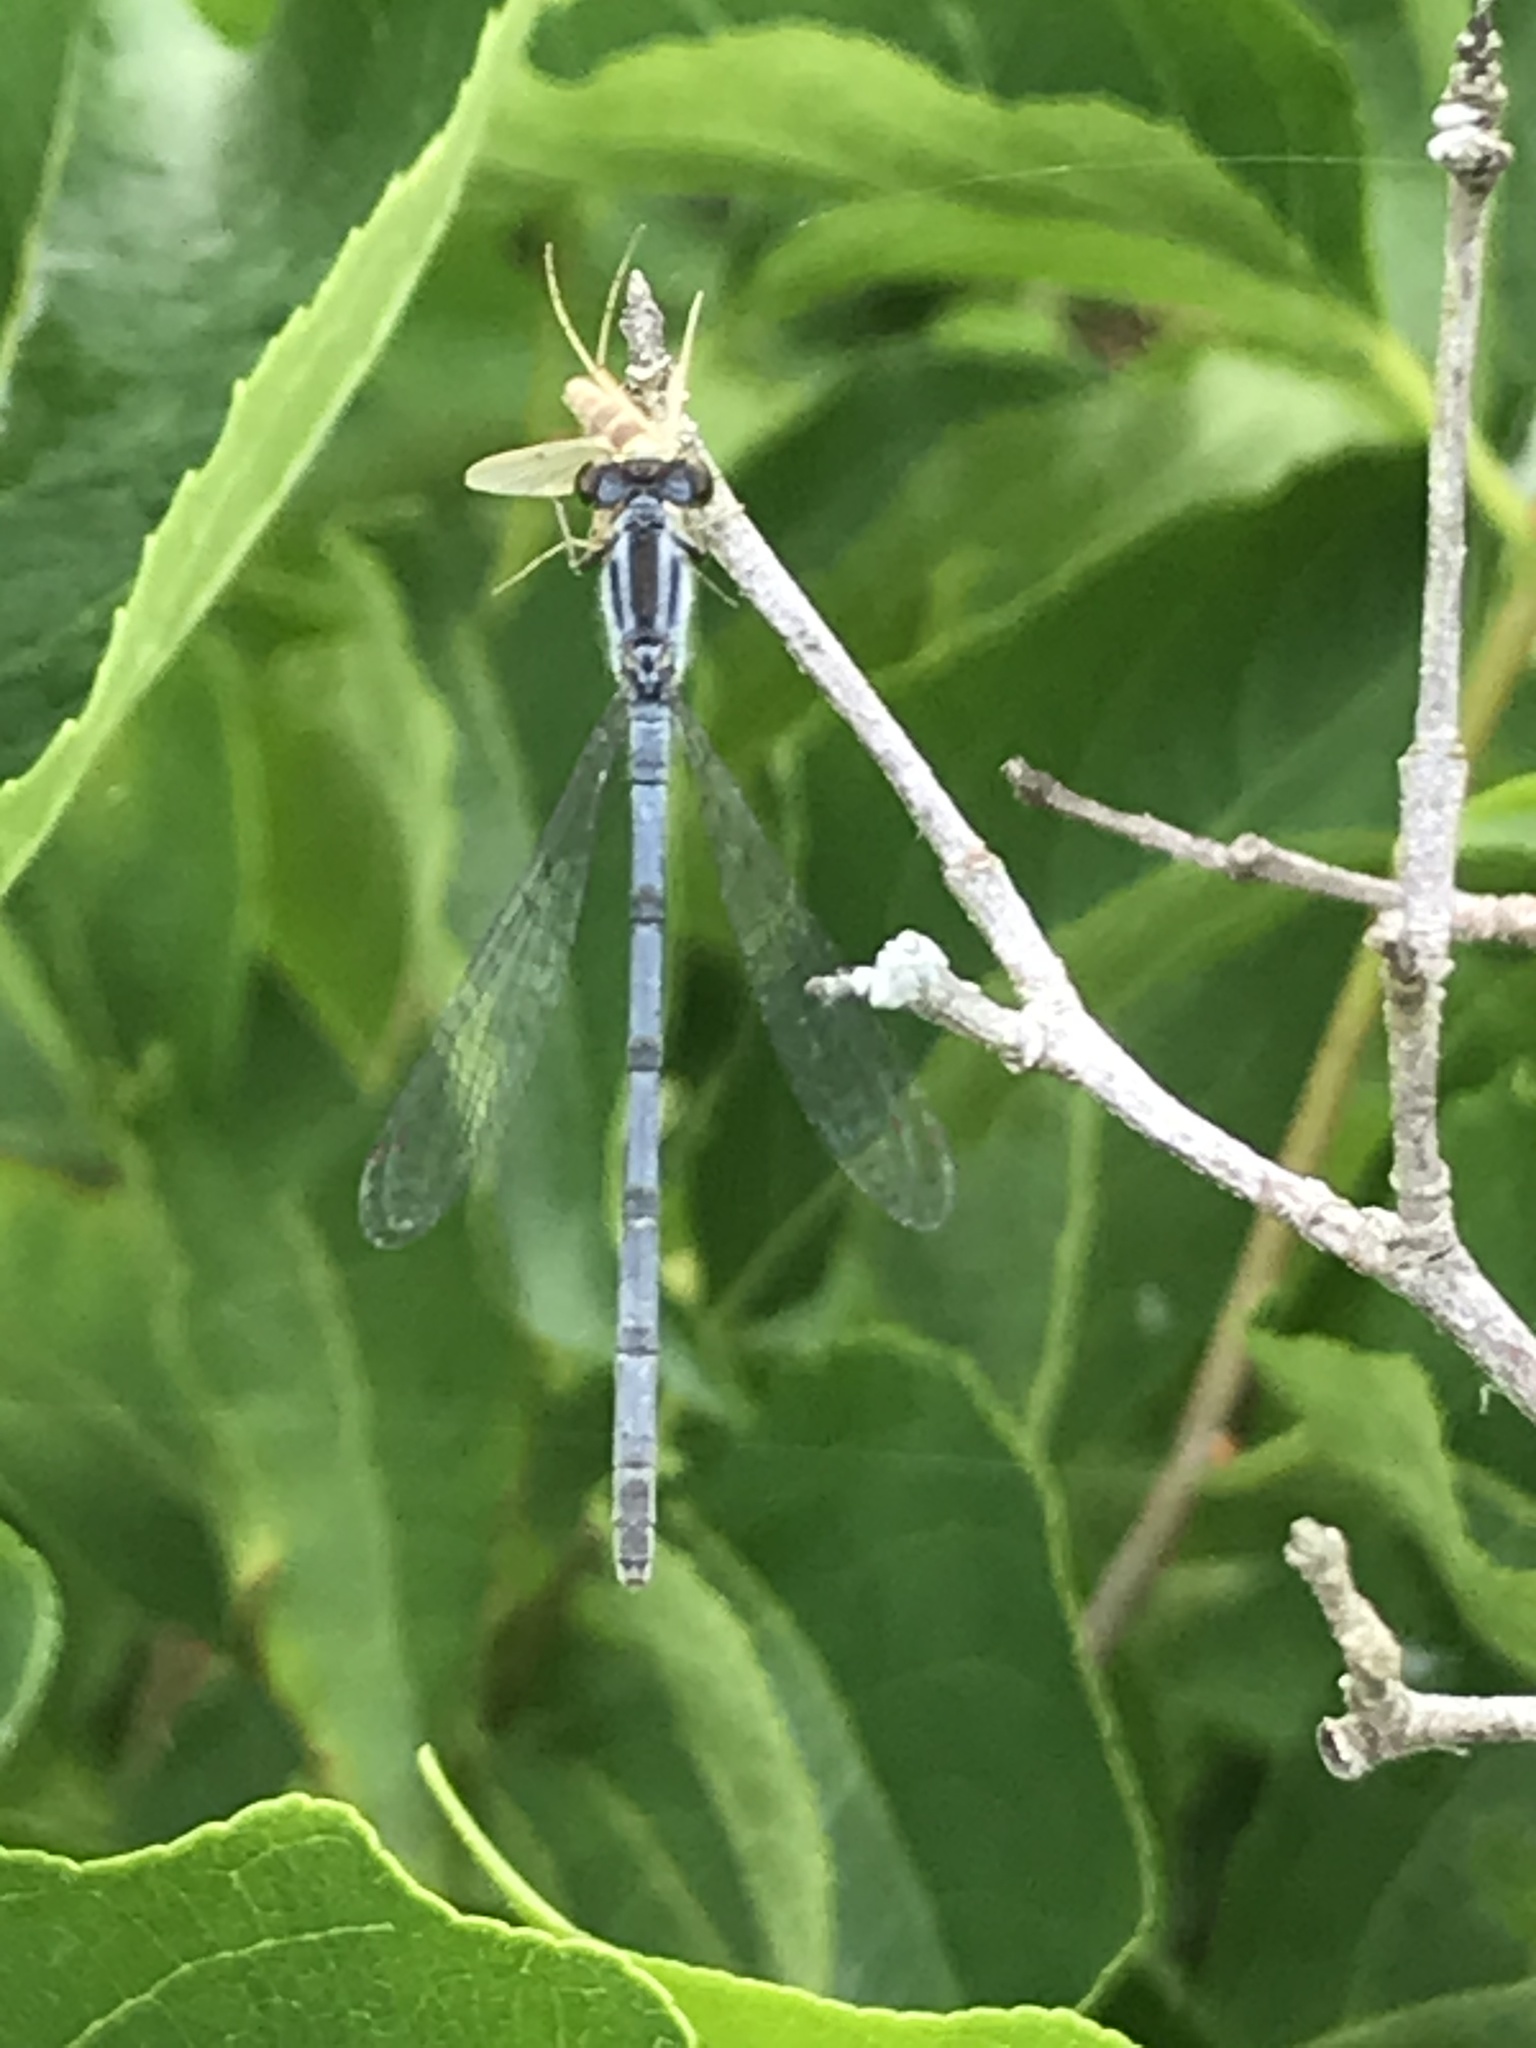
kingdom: Animalia
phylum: Arthropoda
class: Insecta
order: Odonata
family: Coenagrionidae
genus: Ischnura
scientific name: Ischnura verticalis
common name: Eastern forktail
